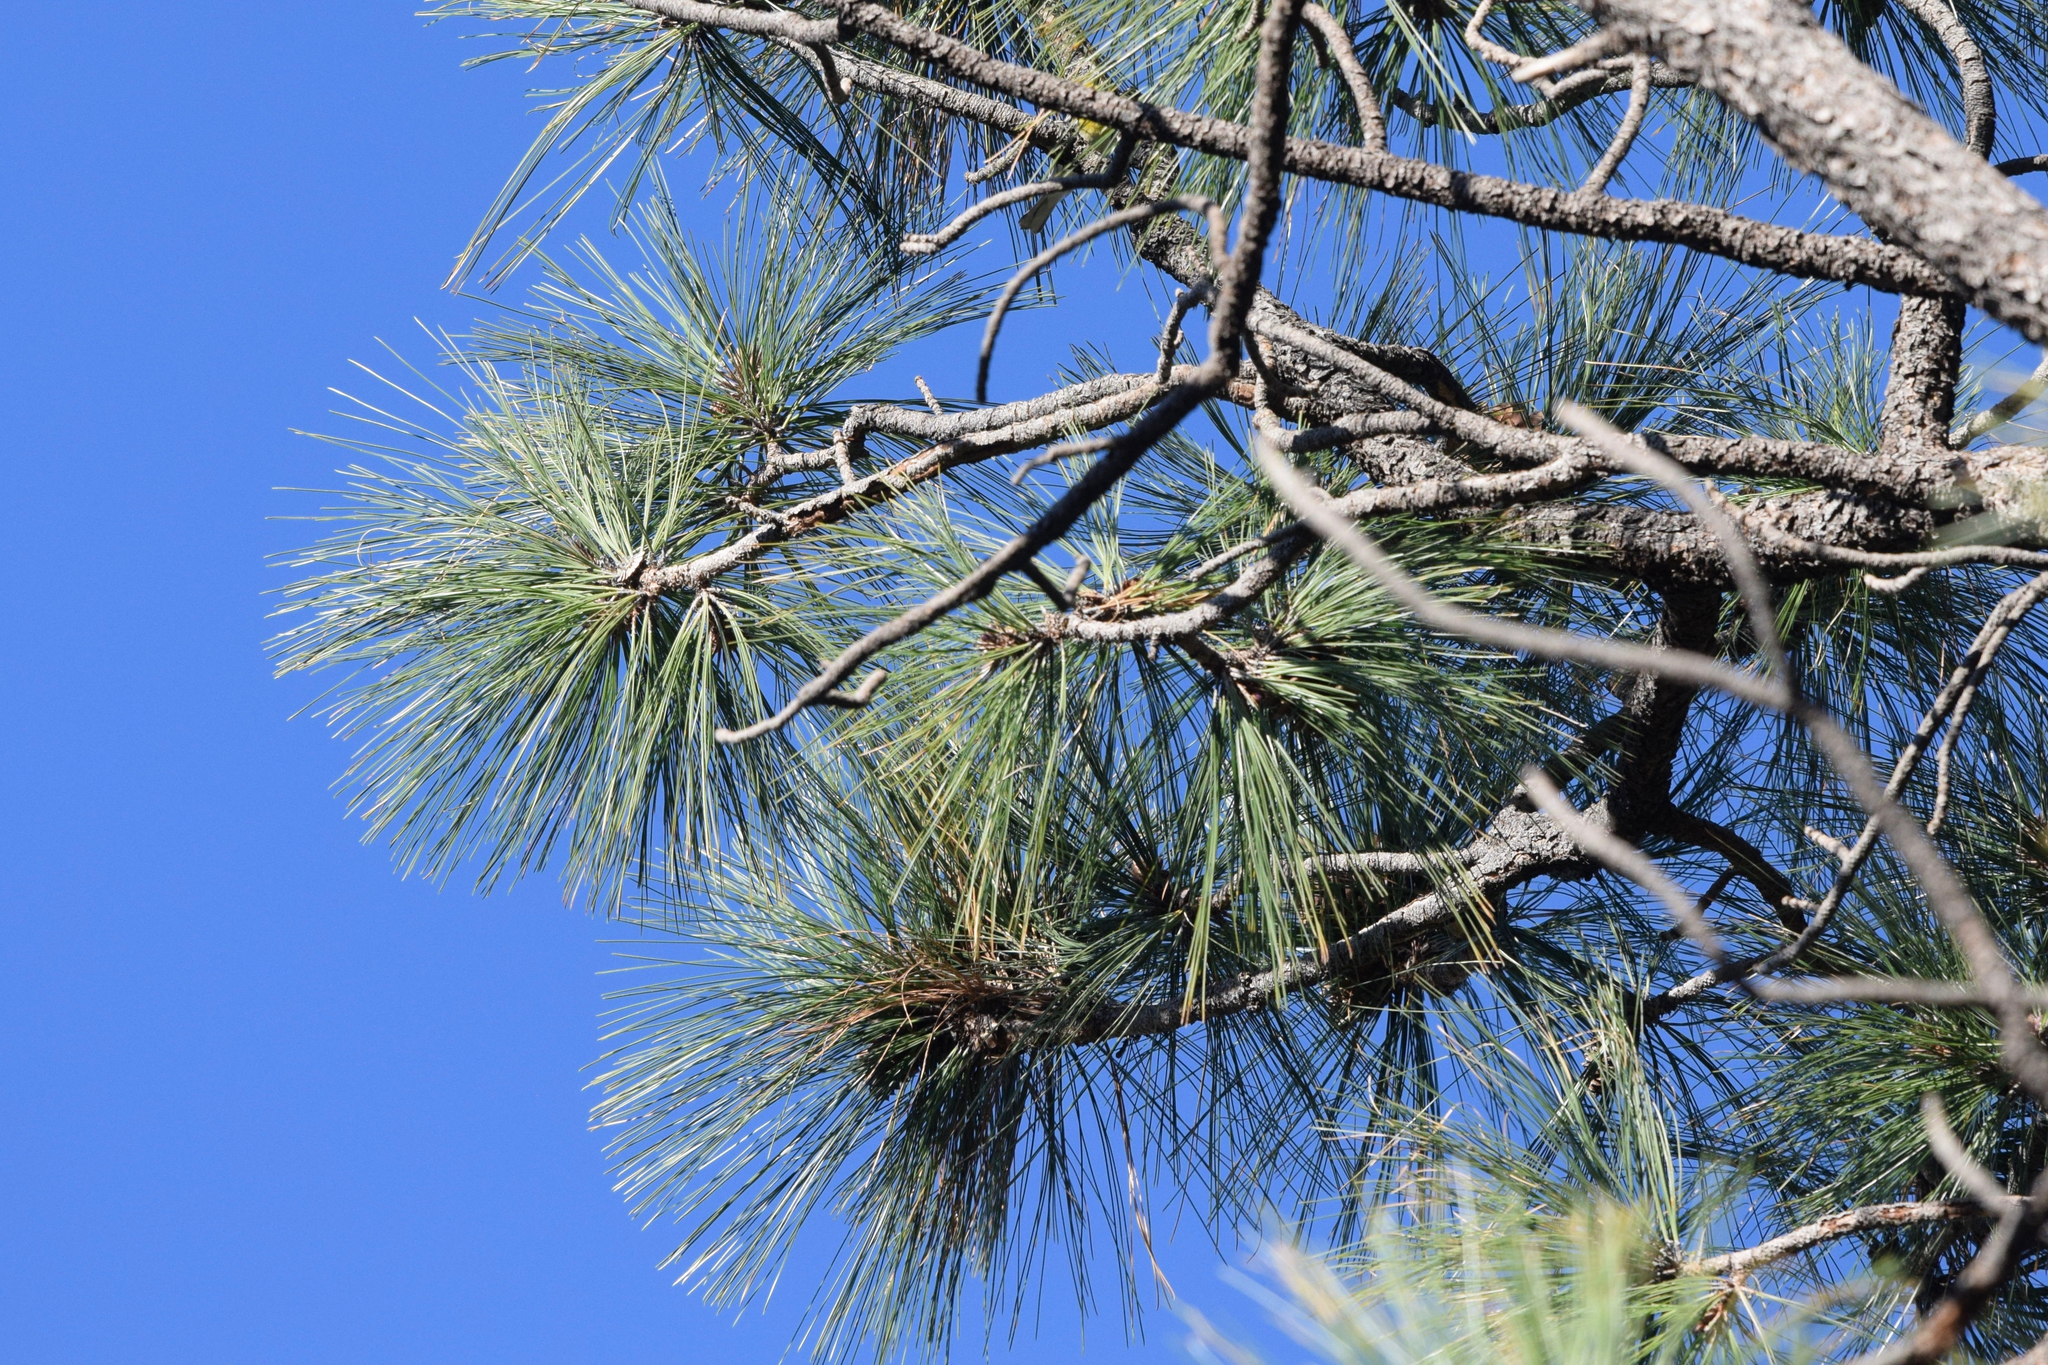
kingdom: Plantae
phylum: Tracheophyta
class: Pinopsida
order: Pinales
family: Pinaceae
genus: Pinus
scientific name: Pinus engelmannii
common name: Apache pine
